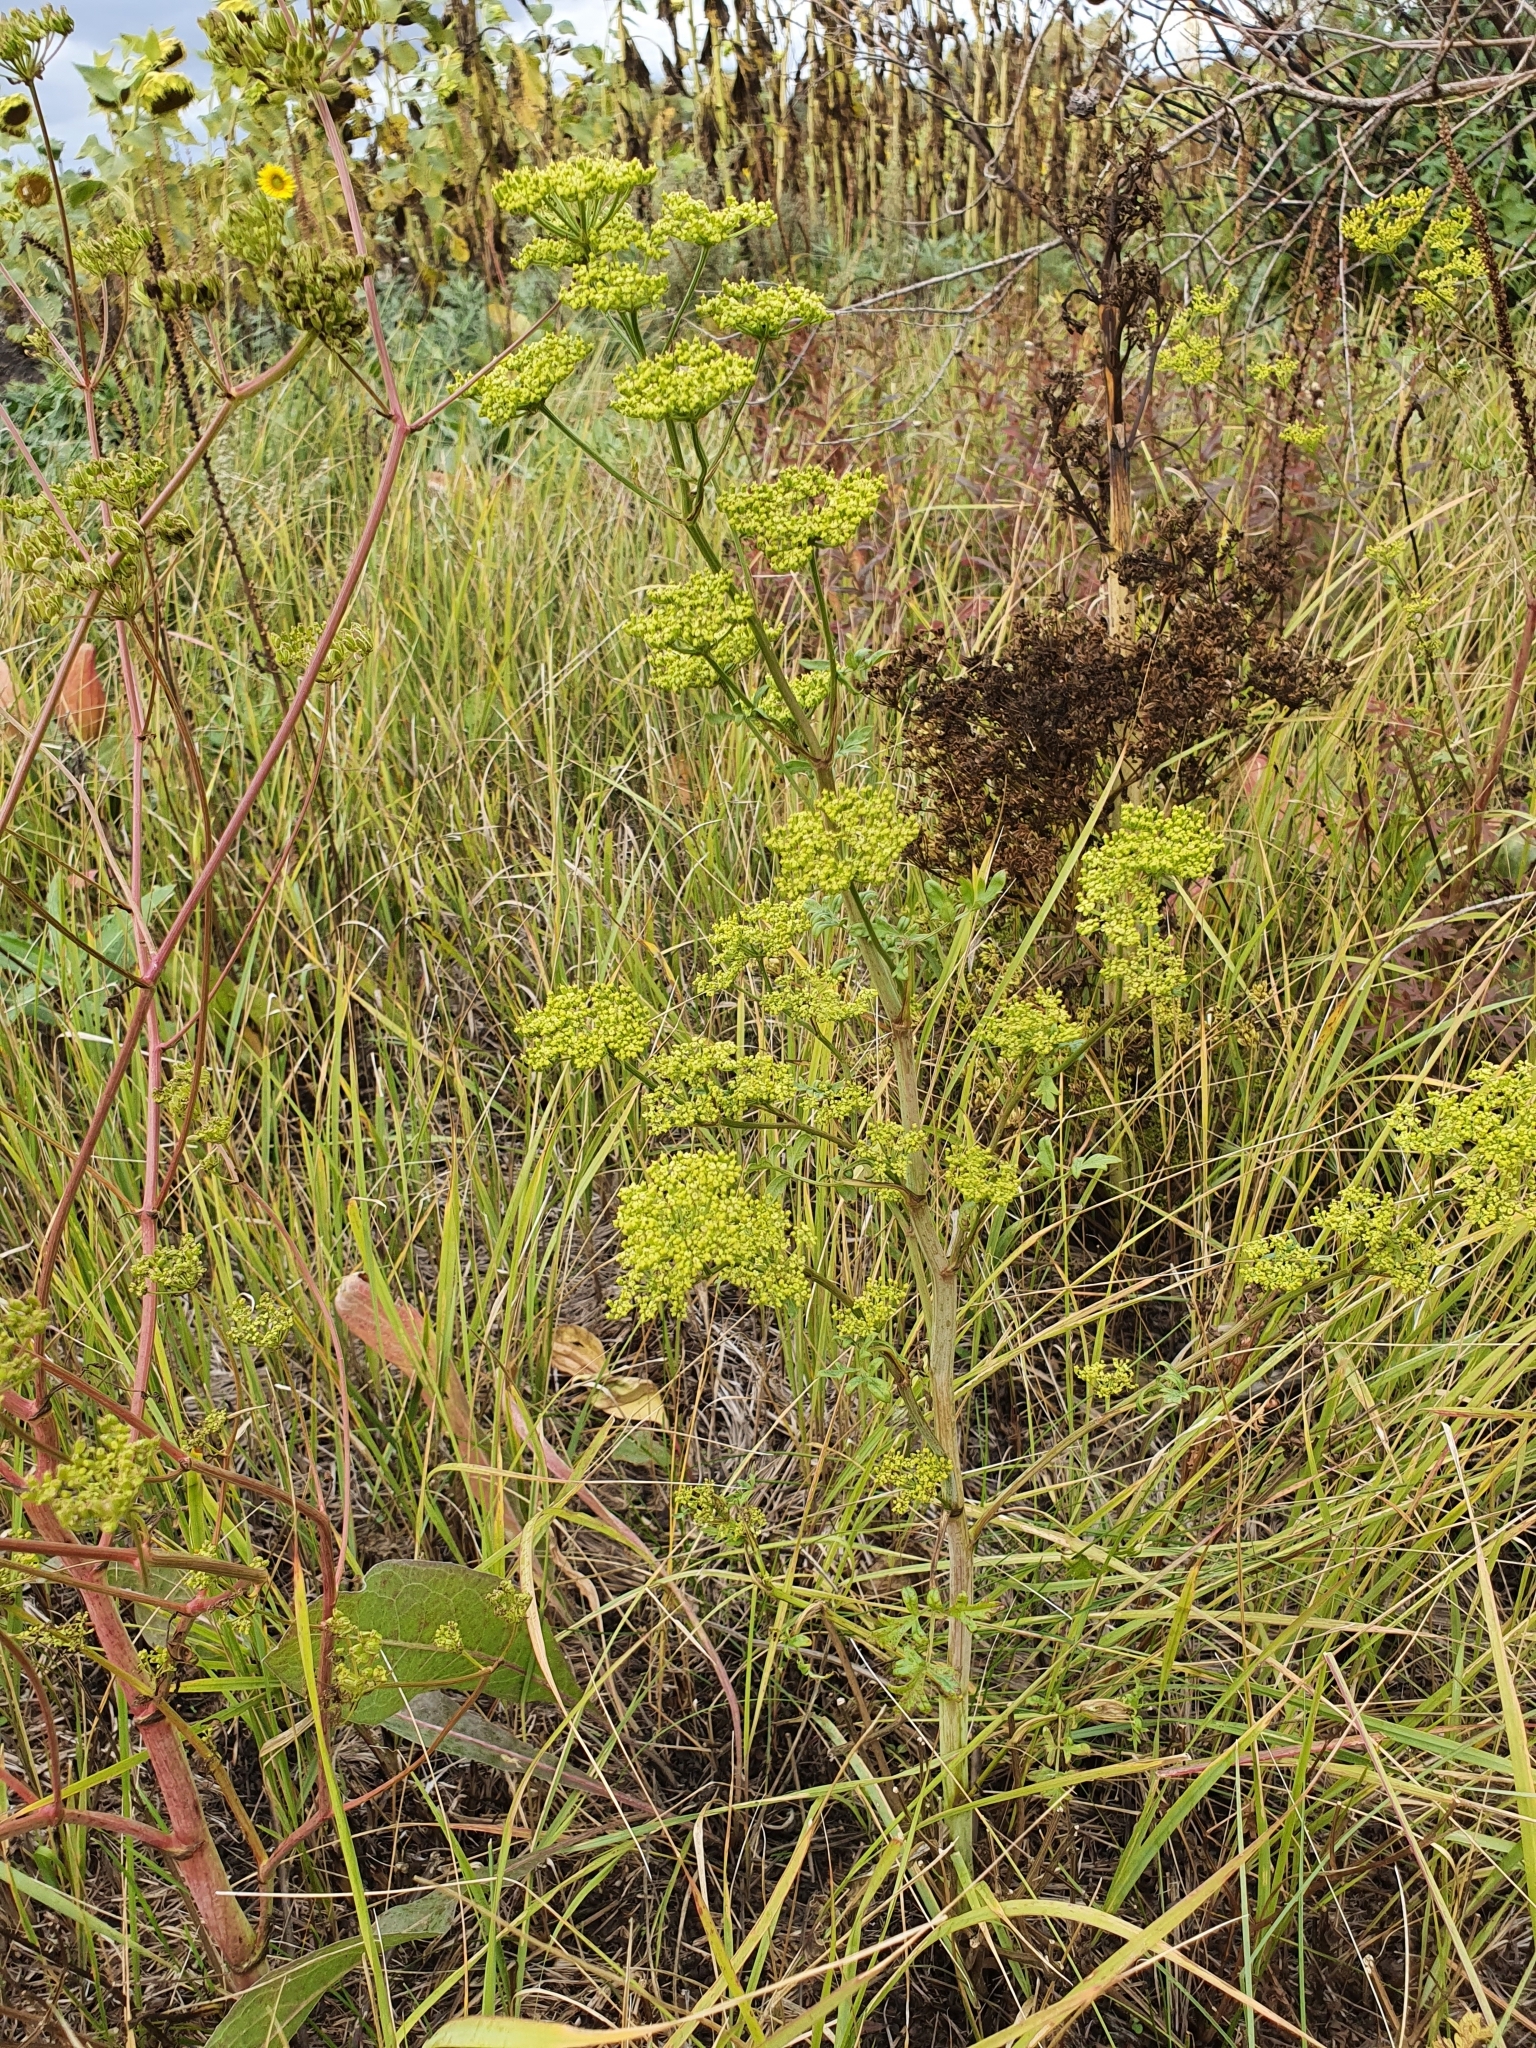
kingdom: Plantae
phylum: Tracheophyta
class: Magnoliopsida
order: Apiales
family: Apiaceae
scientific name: Apiaceae
